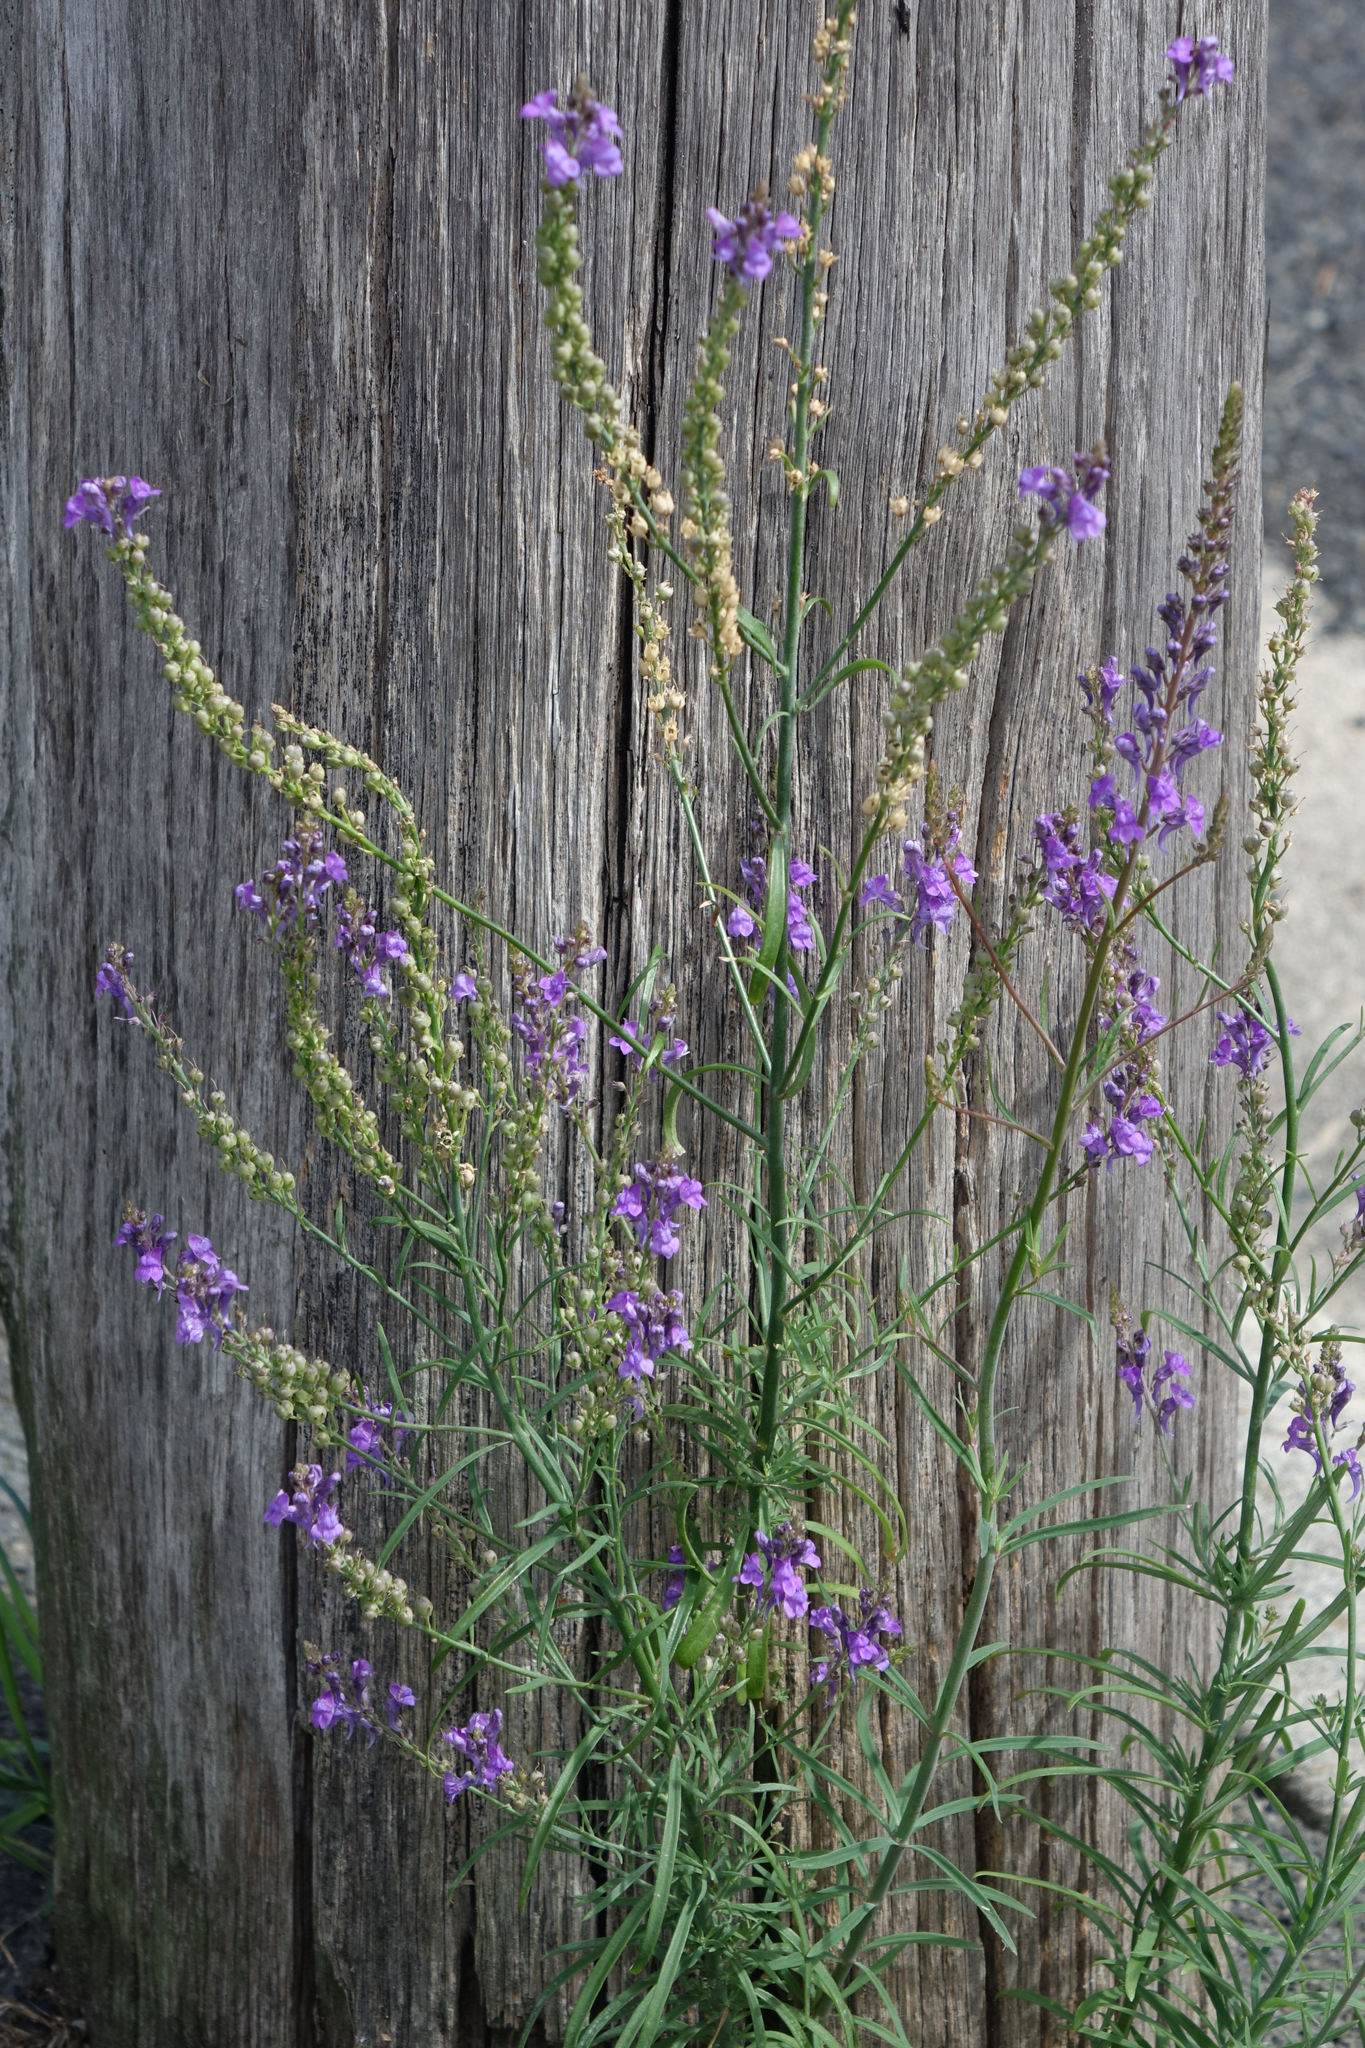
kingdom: Plantae
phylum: Tracheophyta
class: Magnoliopsida
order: Lamiales
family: Plantaginaceae
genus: Linaria
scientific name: Linaria purpurea
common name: Purple toadflax
